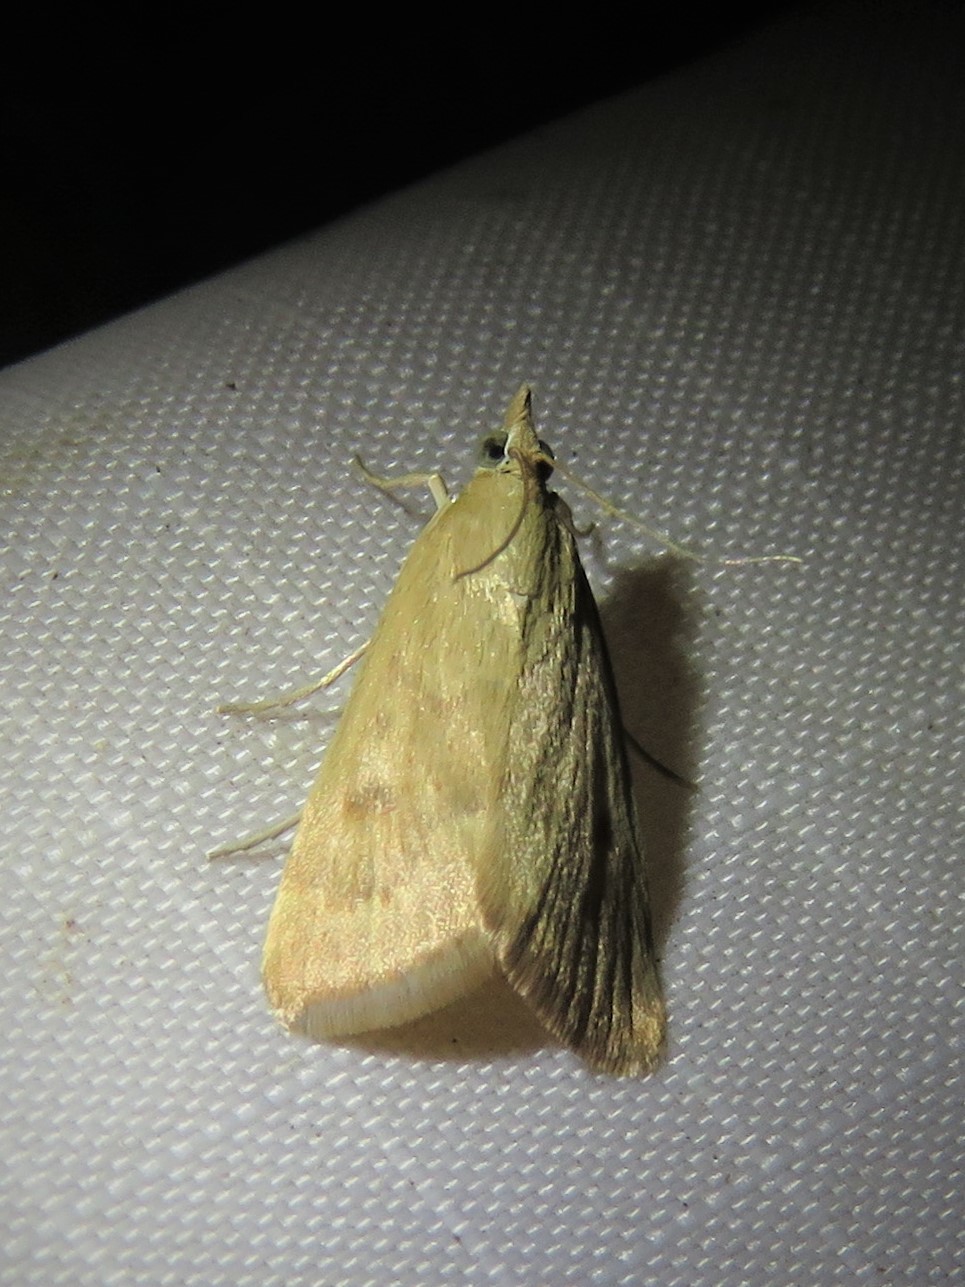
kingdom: Animalia
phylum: Arthropoda
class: Insecta
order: Lepidoptera
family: Crambidae
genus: Achyra
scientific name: Achyra rantalis
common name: Garden webworm
